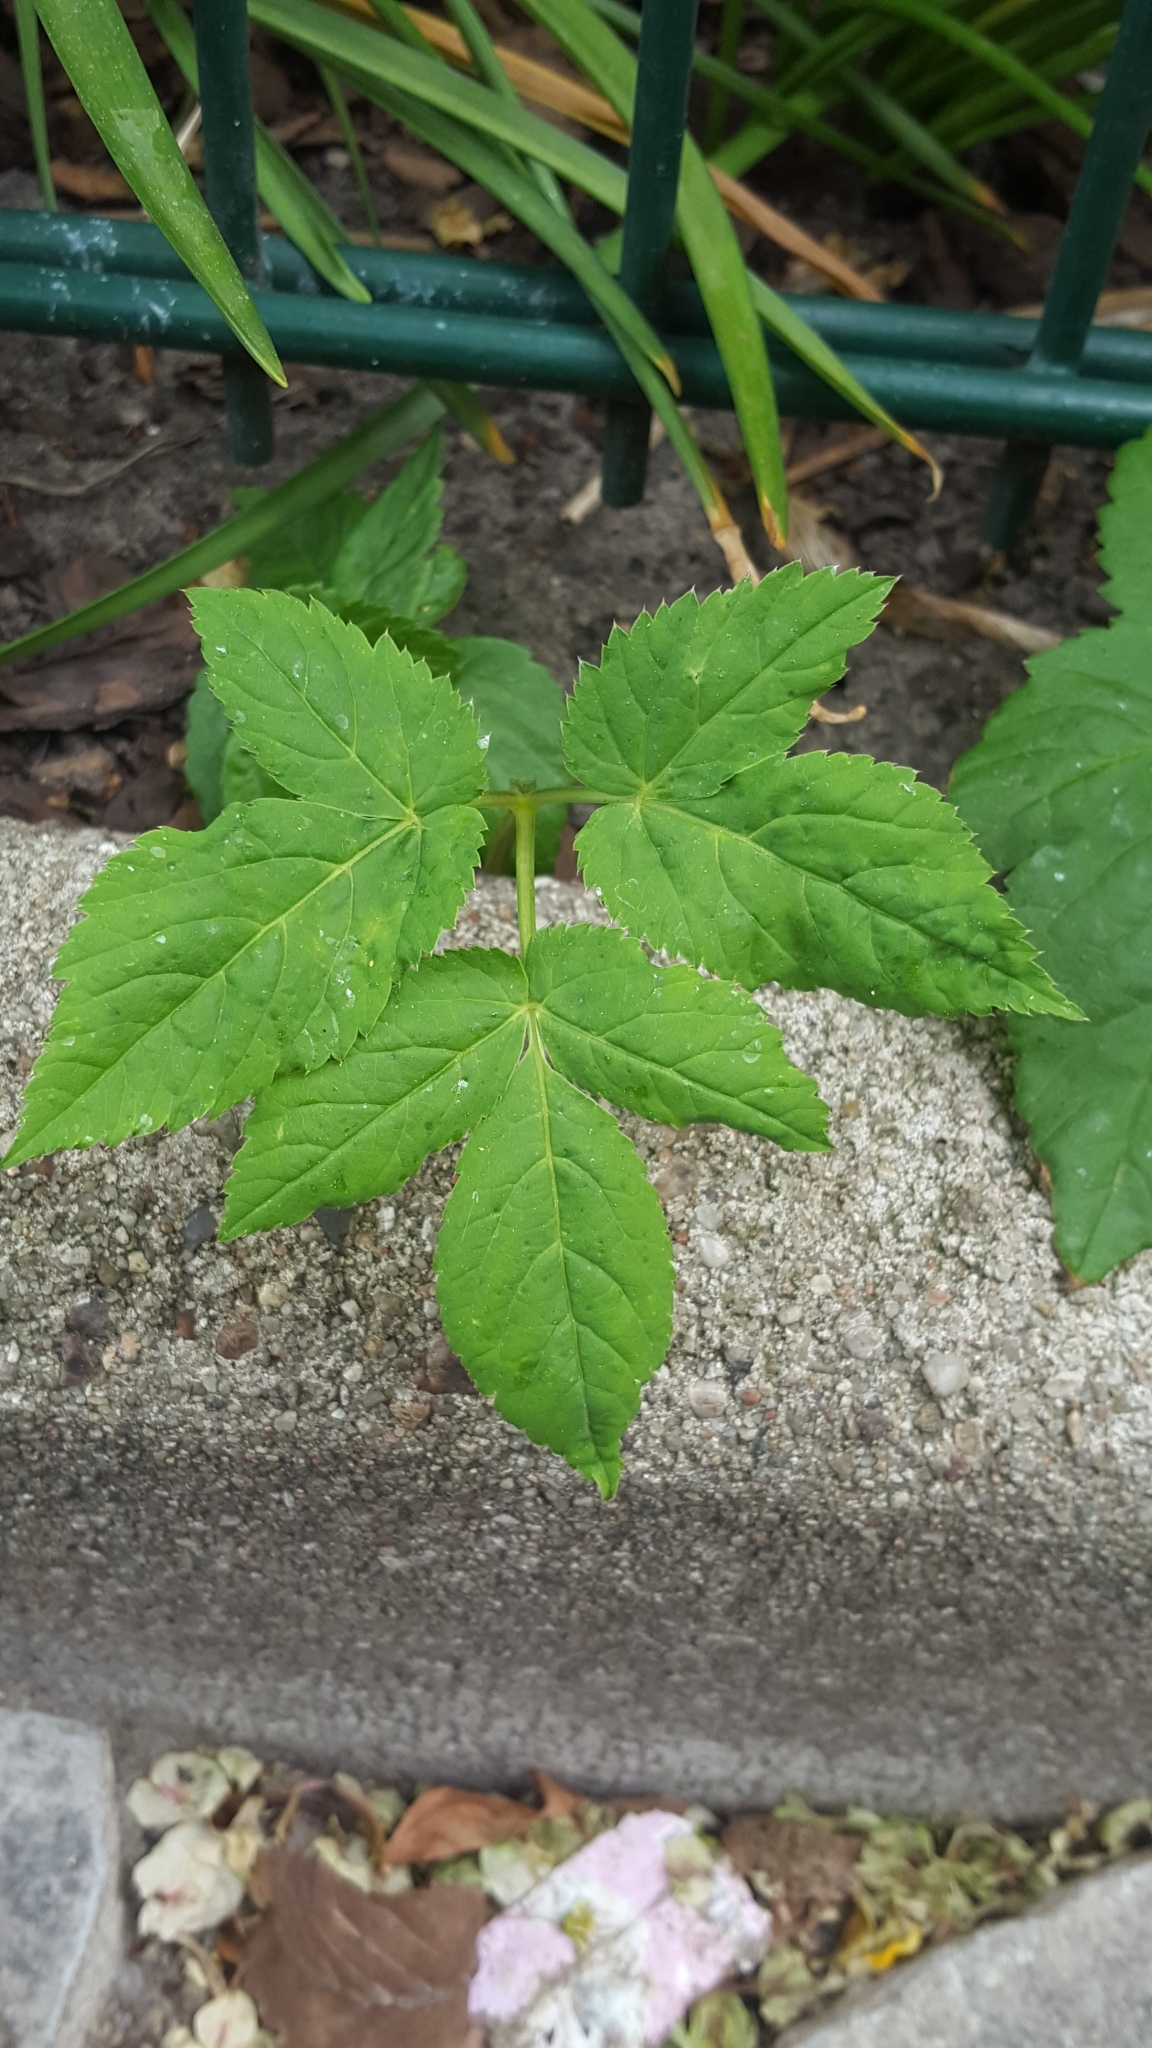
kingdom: Plantae
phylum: Tracheophyta
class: Magnoliopsida
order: Apiales
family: Apiaceae
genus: Aegopodium
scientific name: Aegopodium podagraria
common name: Ground-elder
